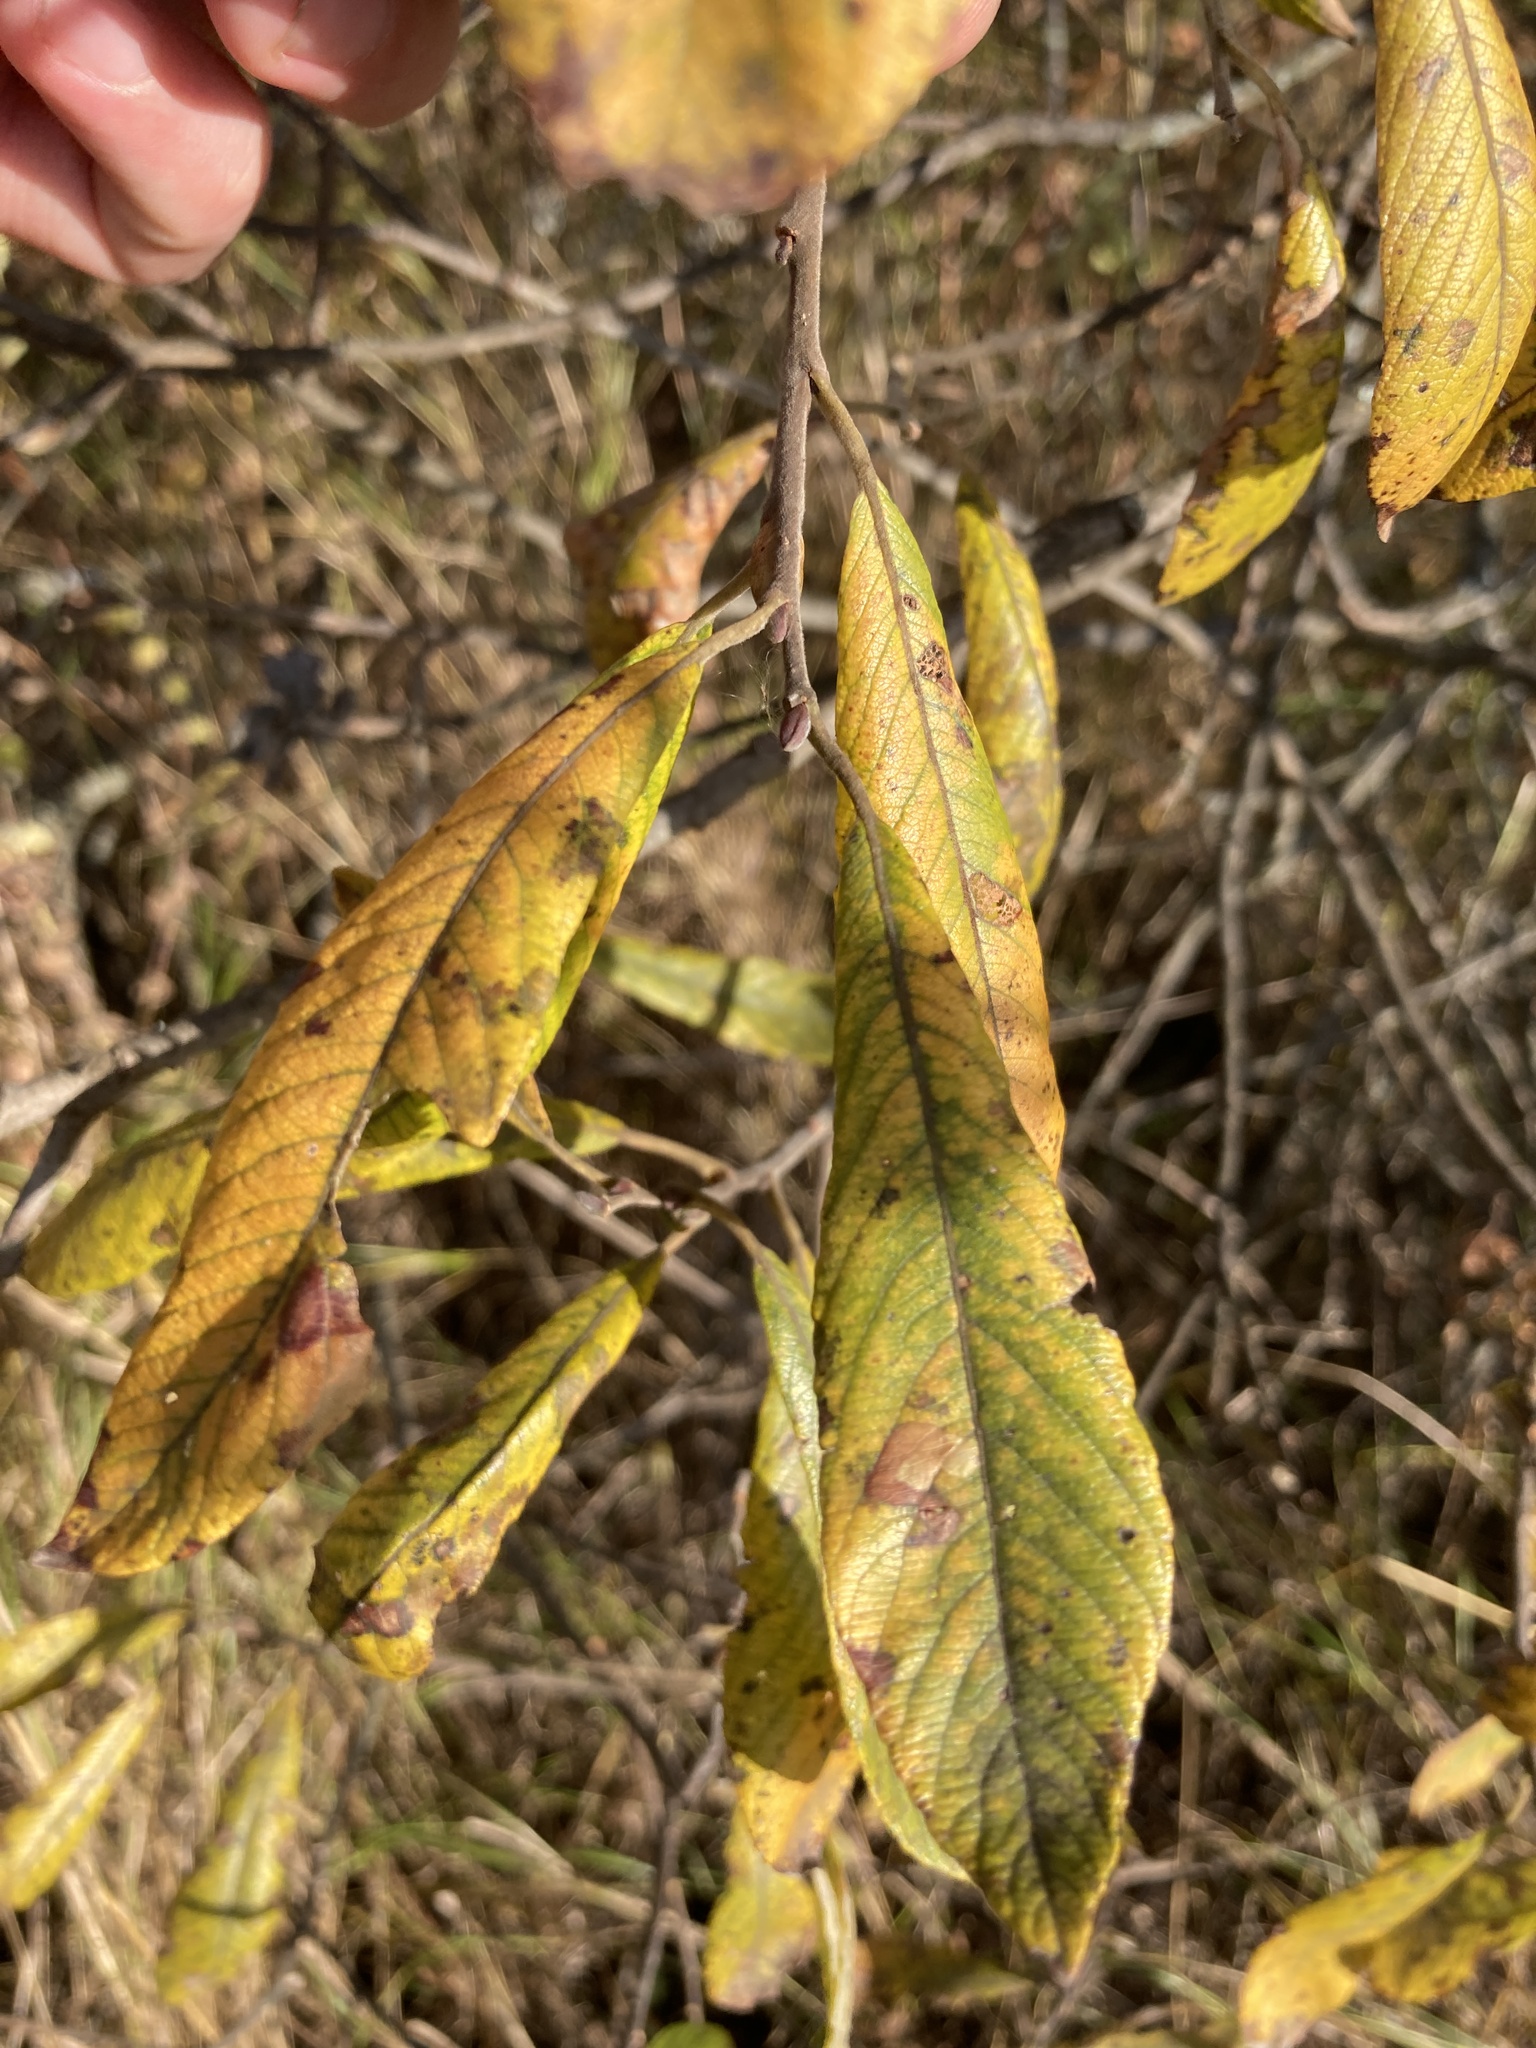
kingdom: Plantae
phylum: Tracheophyta
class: Magnoliopsida
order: Malpighiales
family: Salicaceae
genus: Salix
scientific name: Salix cinerea
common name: Common sallow
